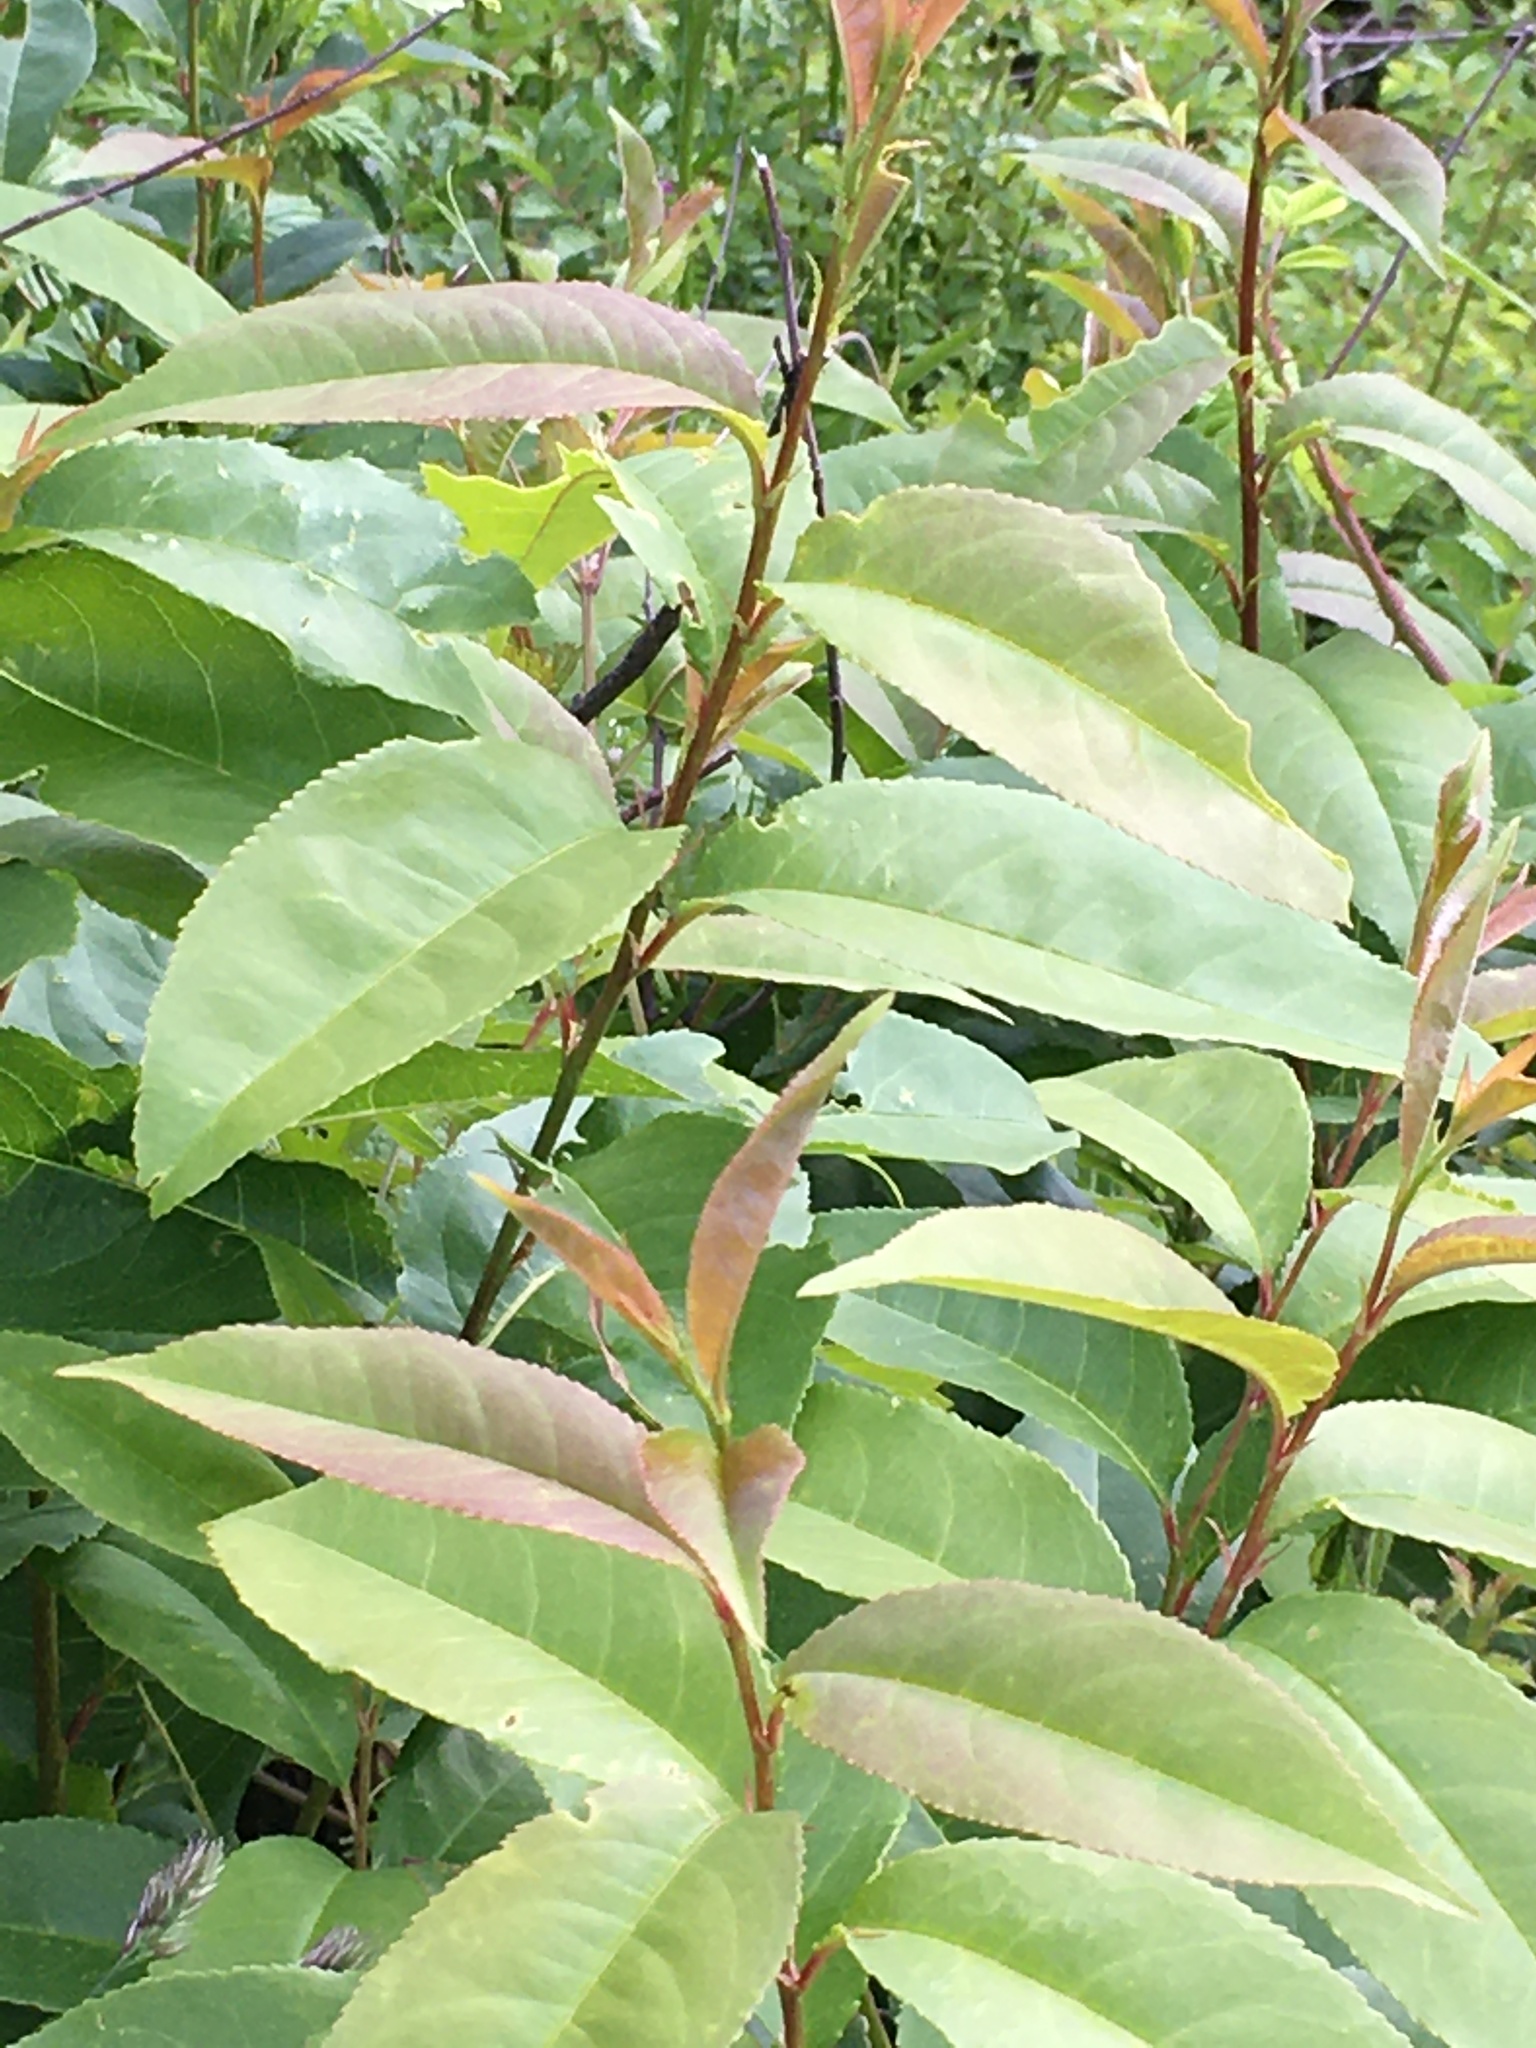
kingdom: Plantae
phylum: Tracheophyta
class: Magnoliopsida
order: Rosales
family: Rosaceae
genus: Prunus
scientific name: Prunus serotina
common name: Black cherry
